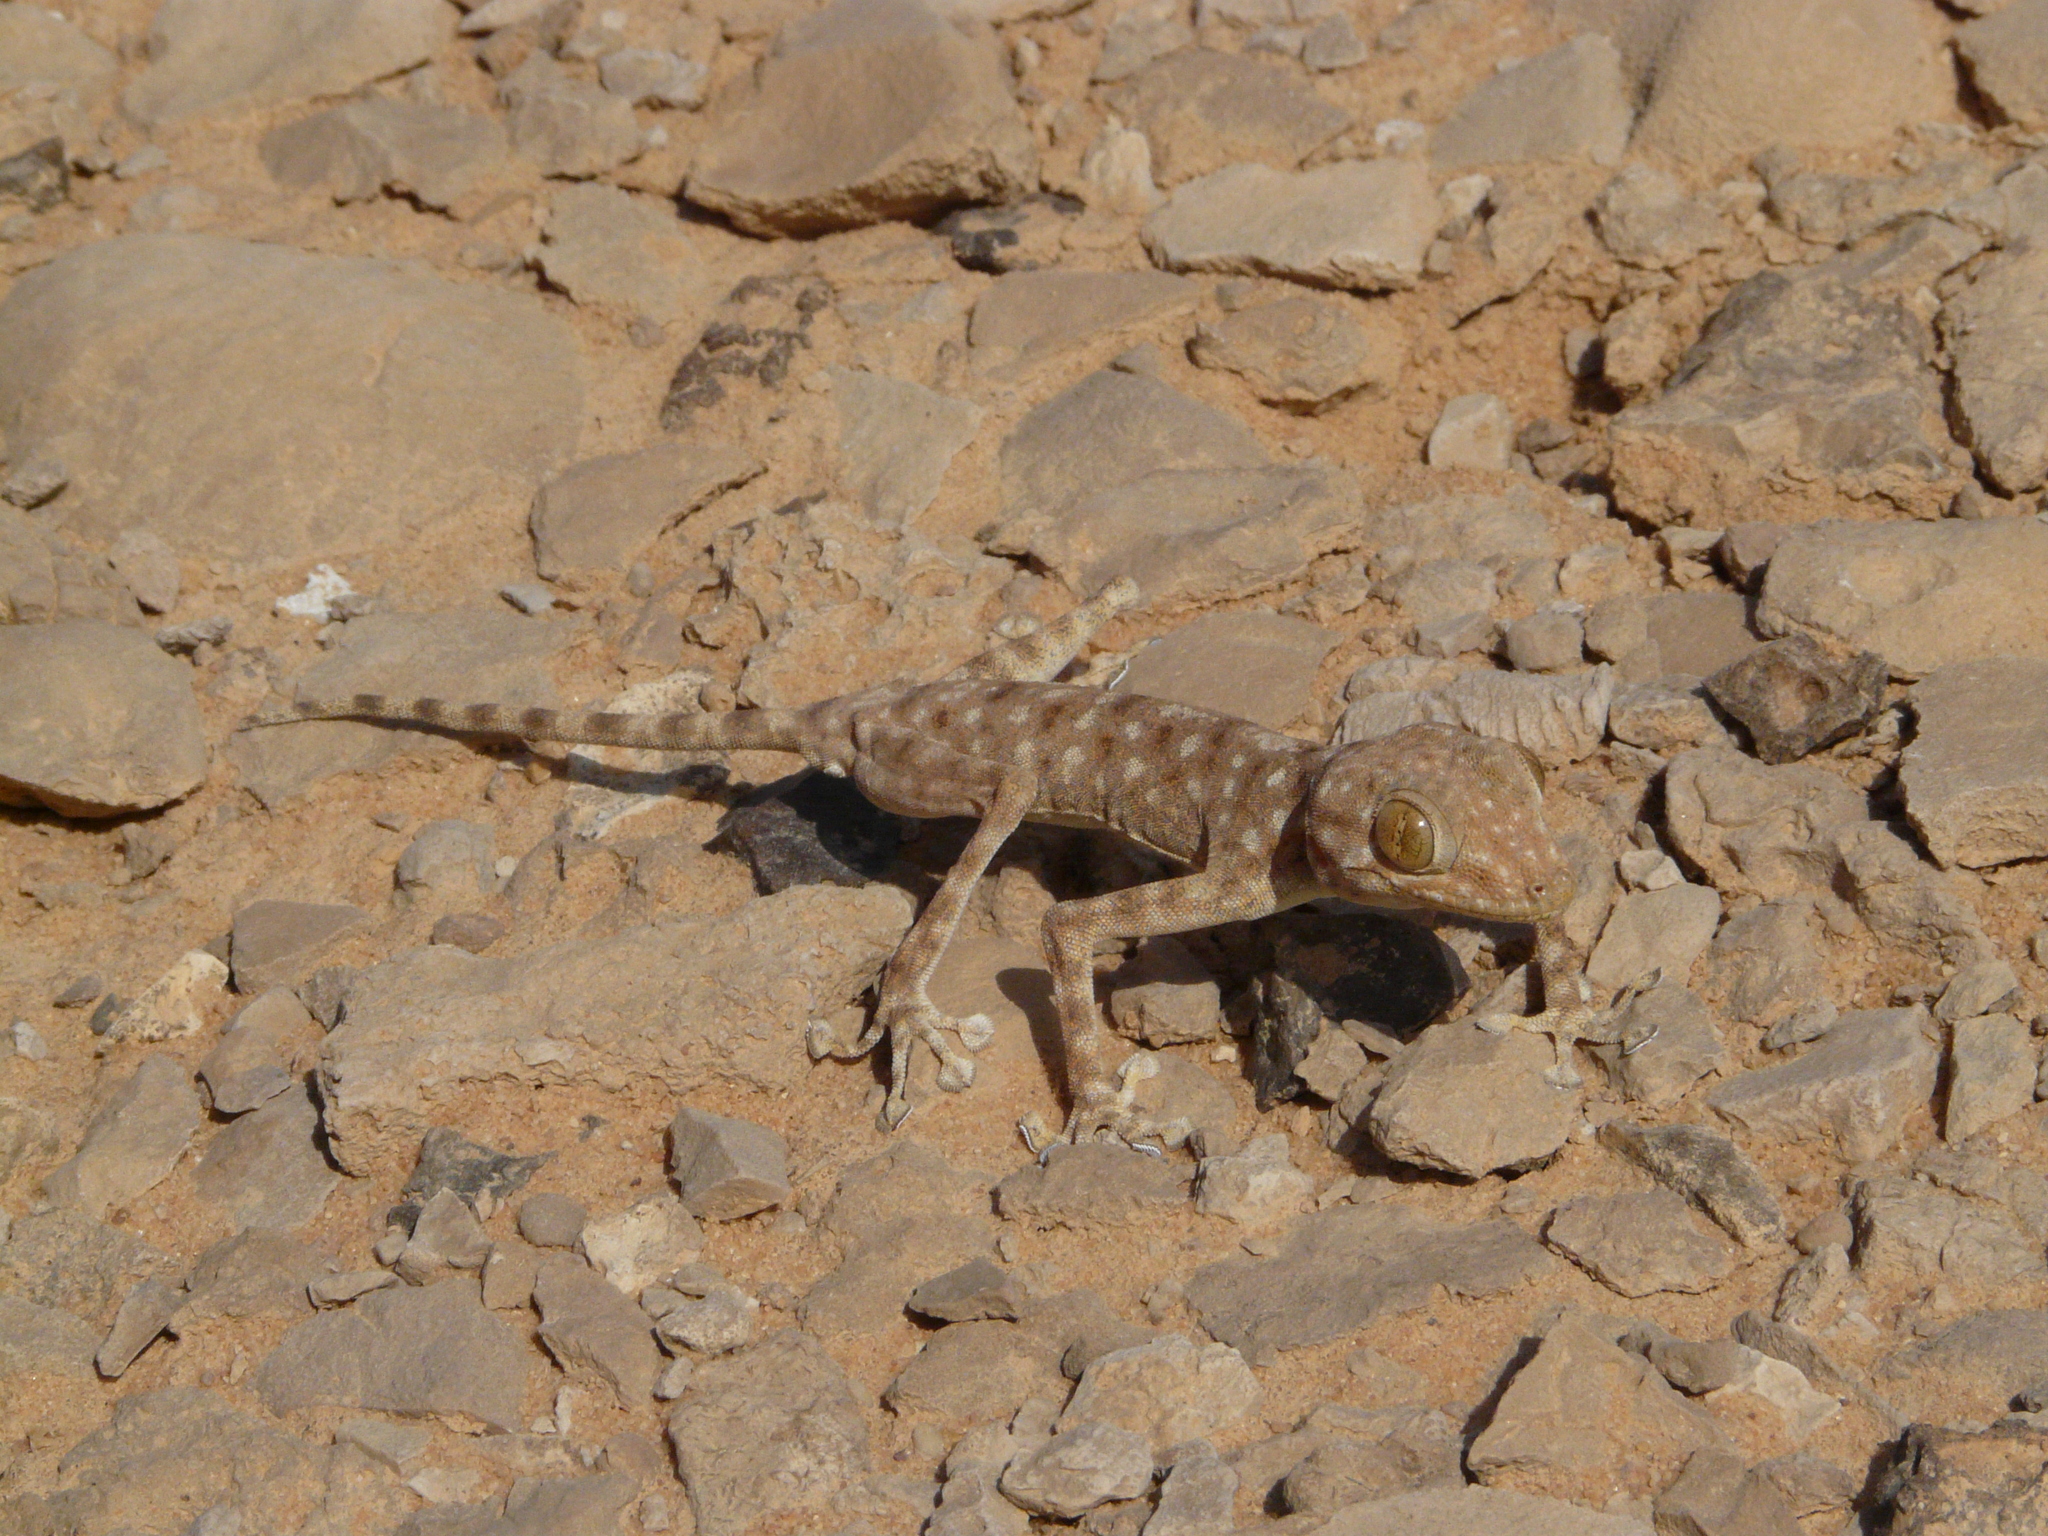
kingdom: Animalia
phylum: Chordata
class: Squamata
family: Phyllodactylidae
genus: Ptyodactylus
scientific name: Ptyodactylus guttatus
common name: Sinai fan-fingered gecko
